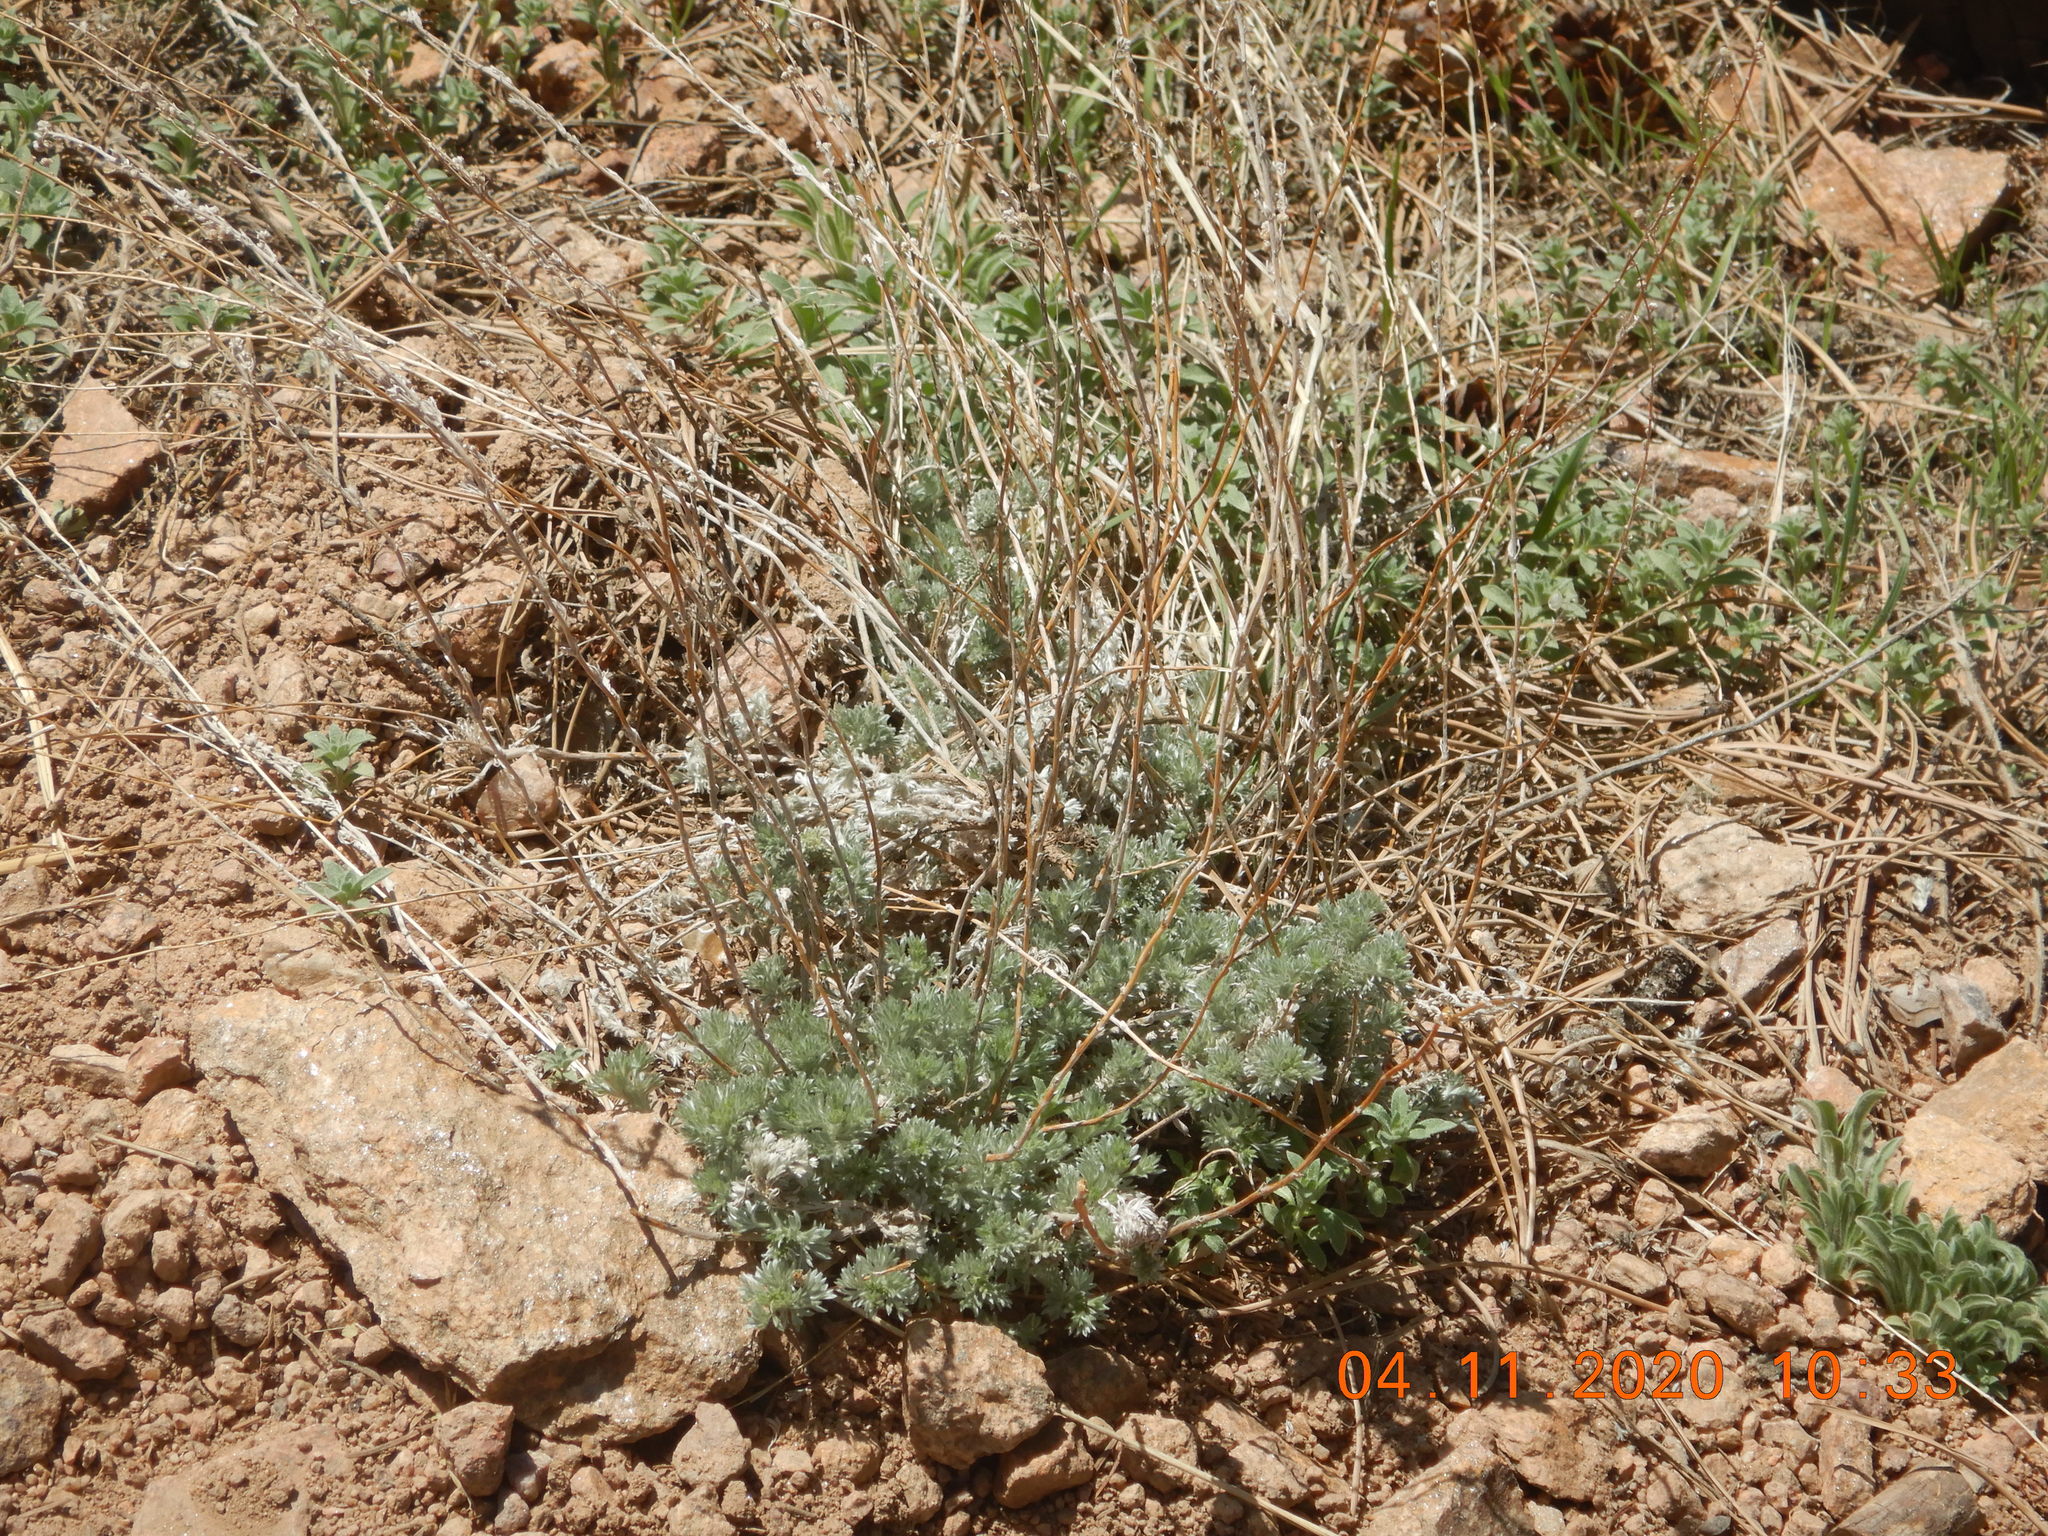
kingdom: Plantae
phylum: Tracheophyta
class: Magnoliopsida
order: Asterales
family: Asteraceae
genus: Artemisia
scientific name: Artemisia frigida
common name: Prairie sagewort
